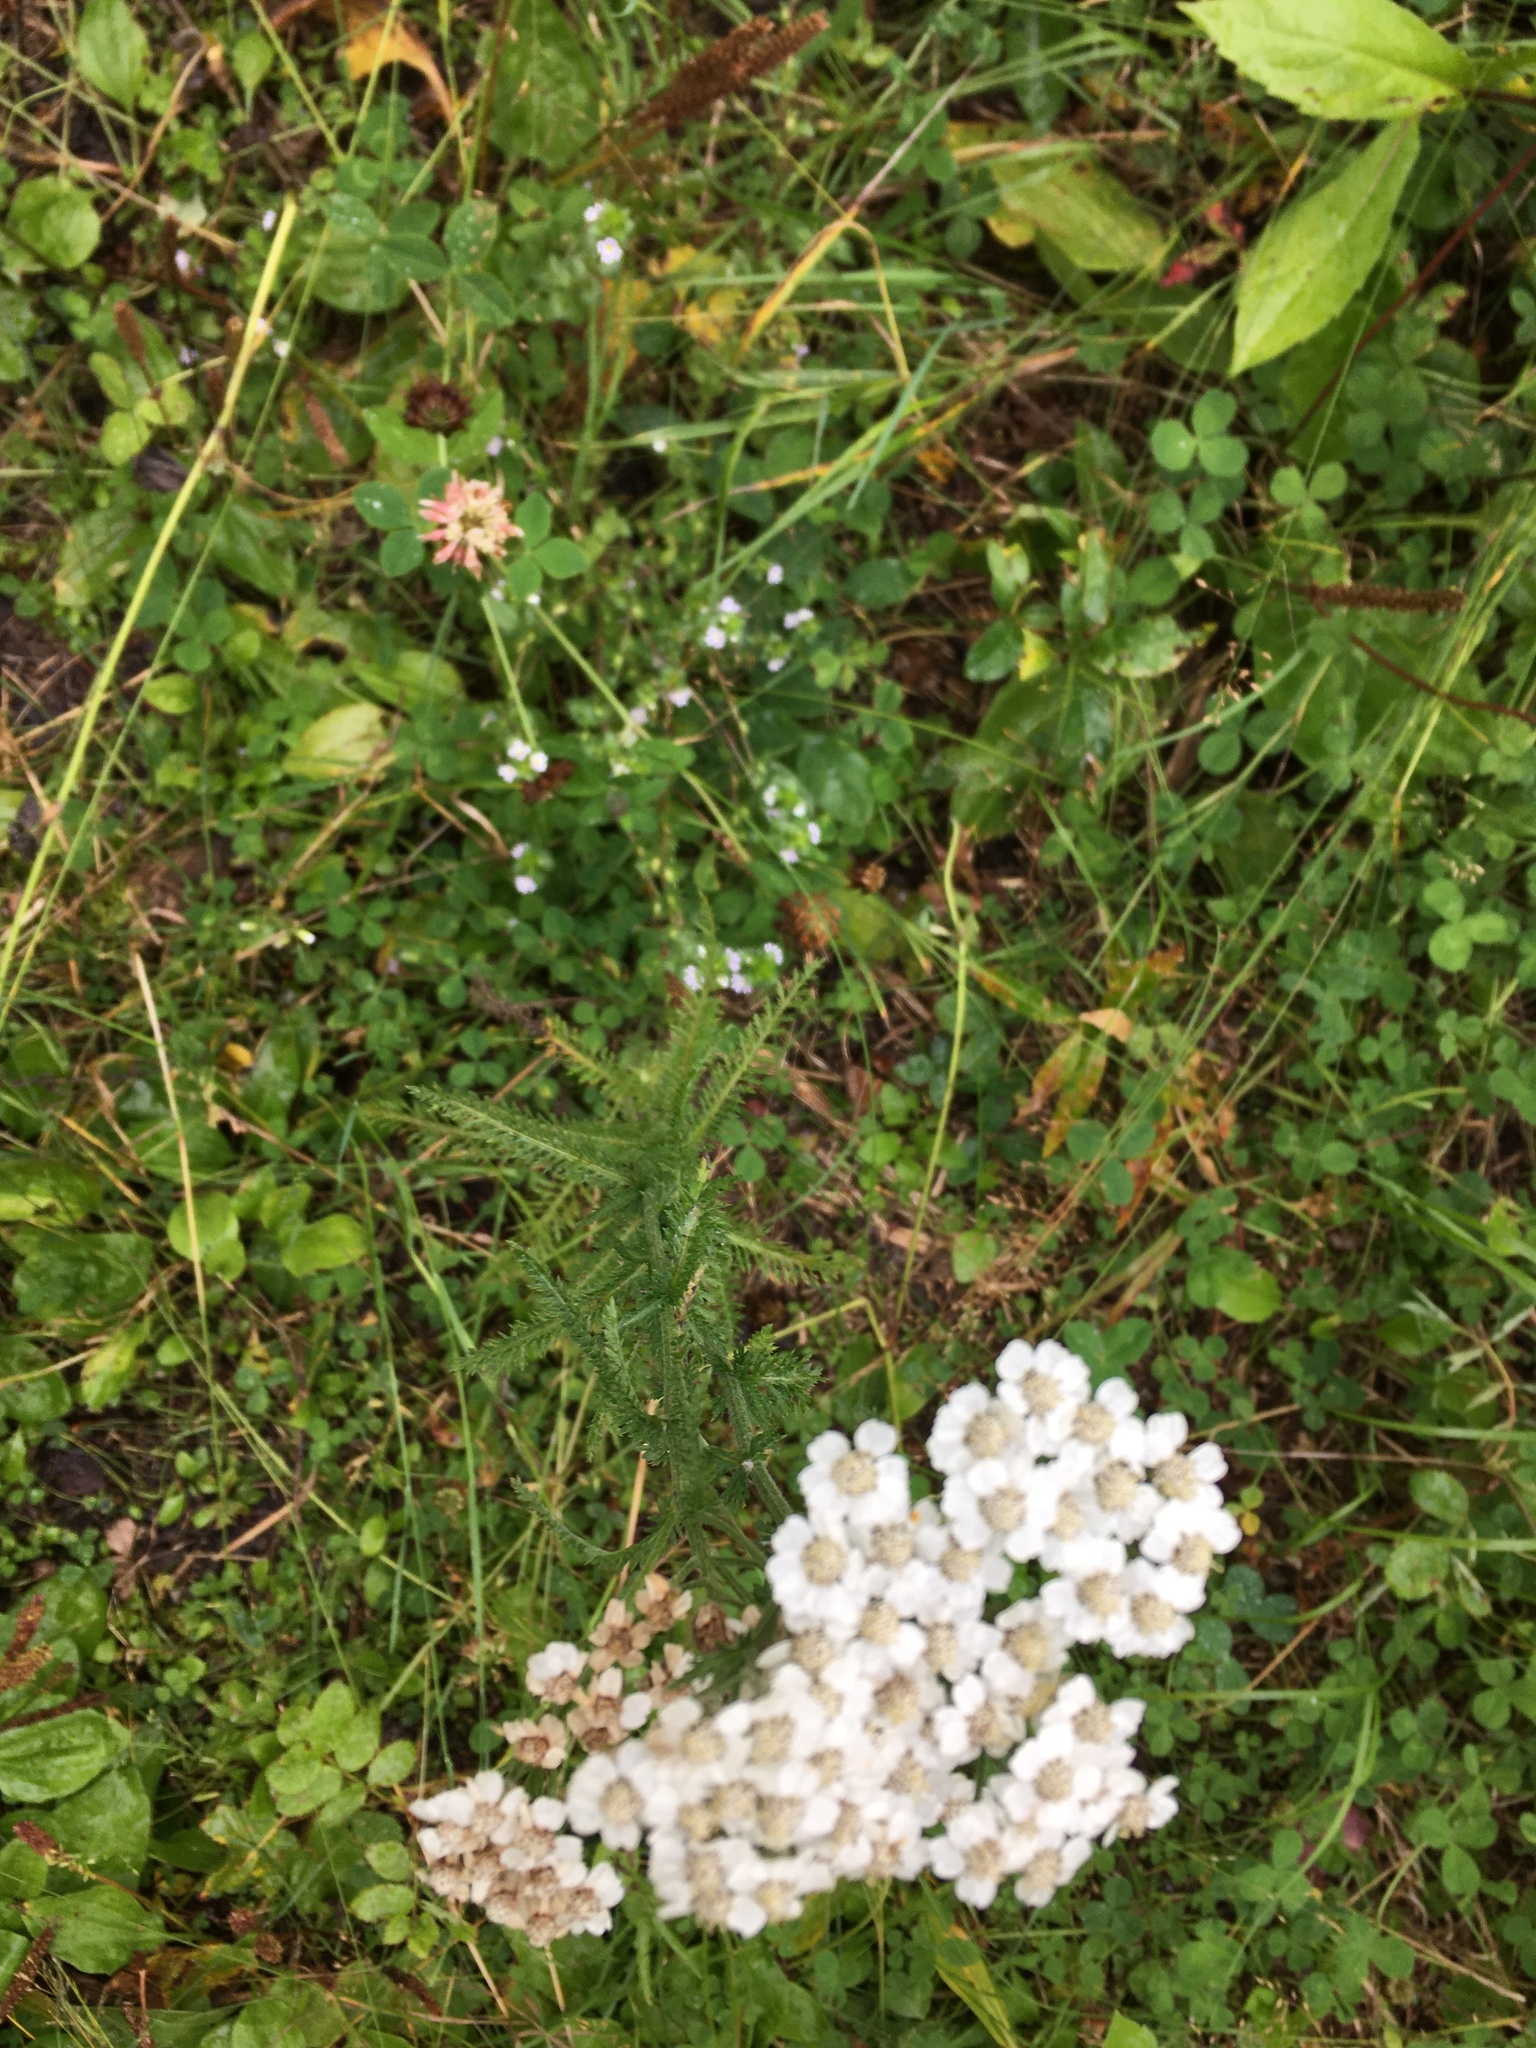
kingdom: Plantae
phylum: Tracheophyta
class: Magnoliopsida
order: Asterales
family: Asteraceae
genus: Achillea
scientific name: Achillea millefolium
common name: Yarrow
